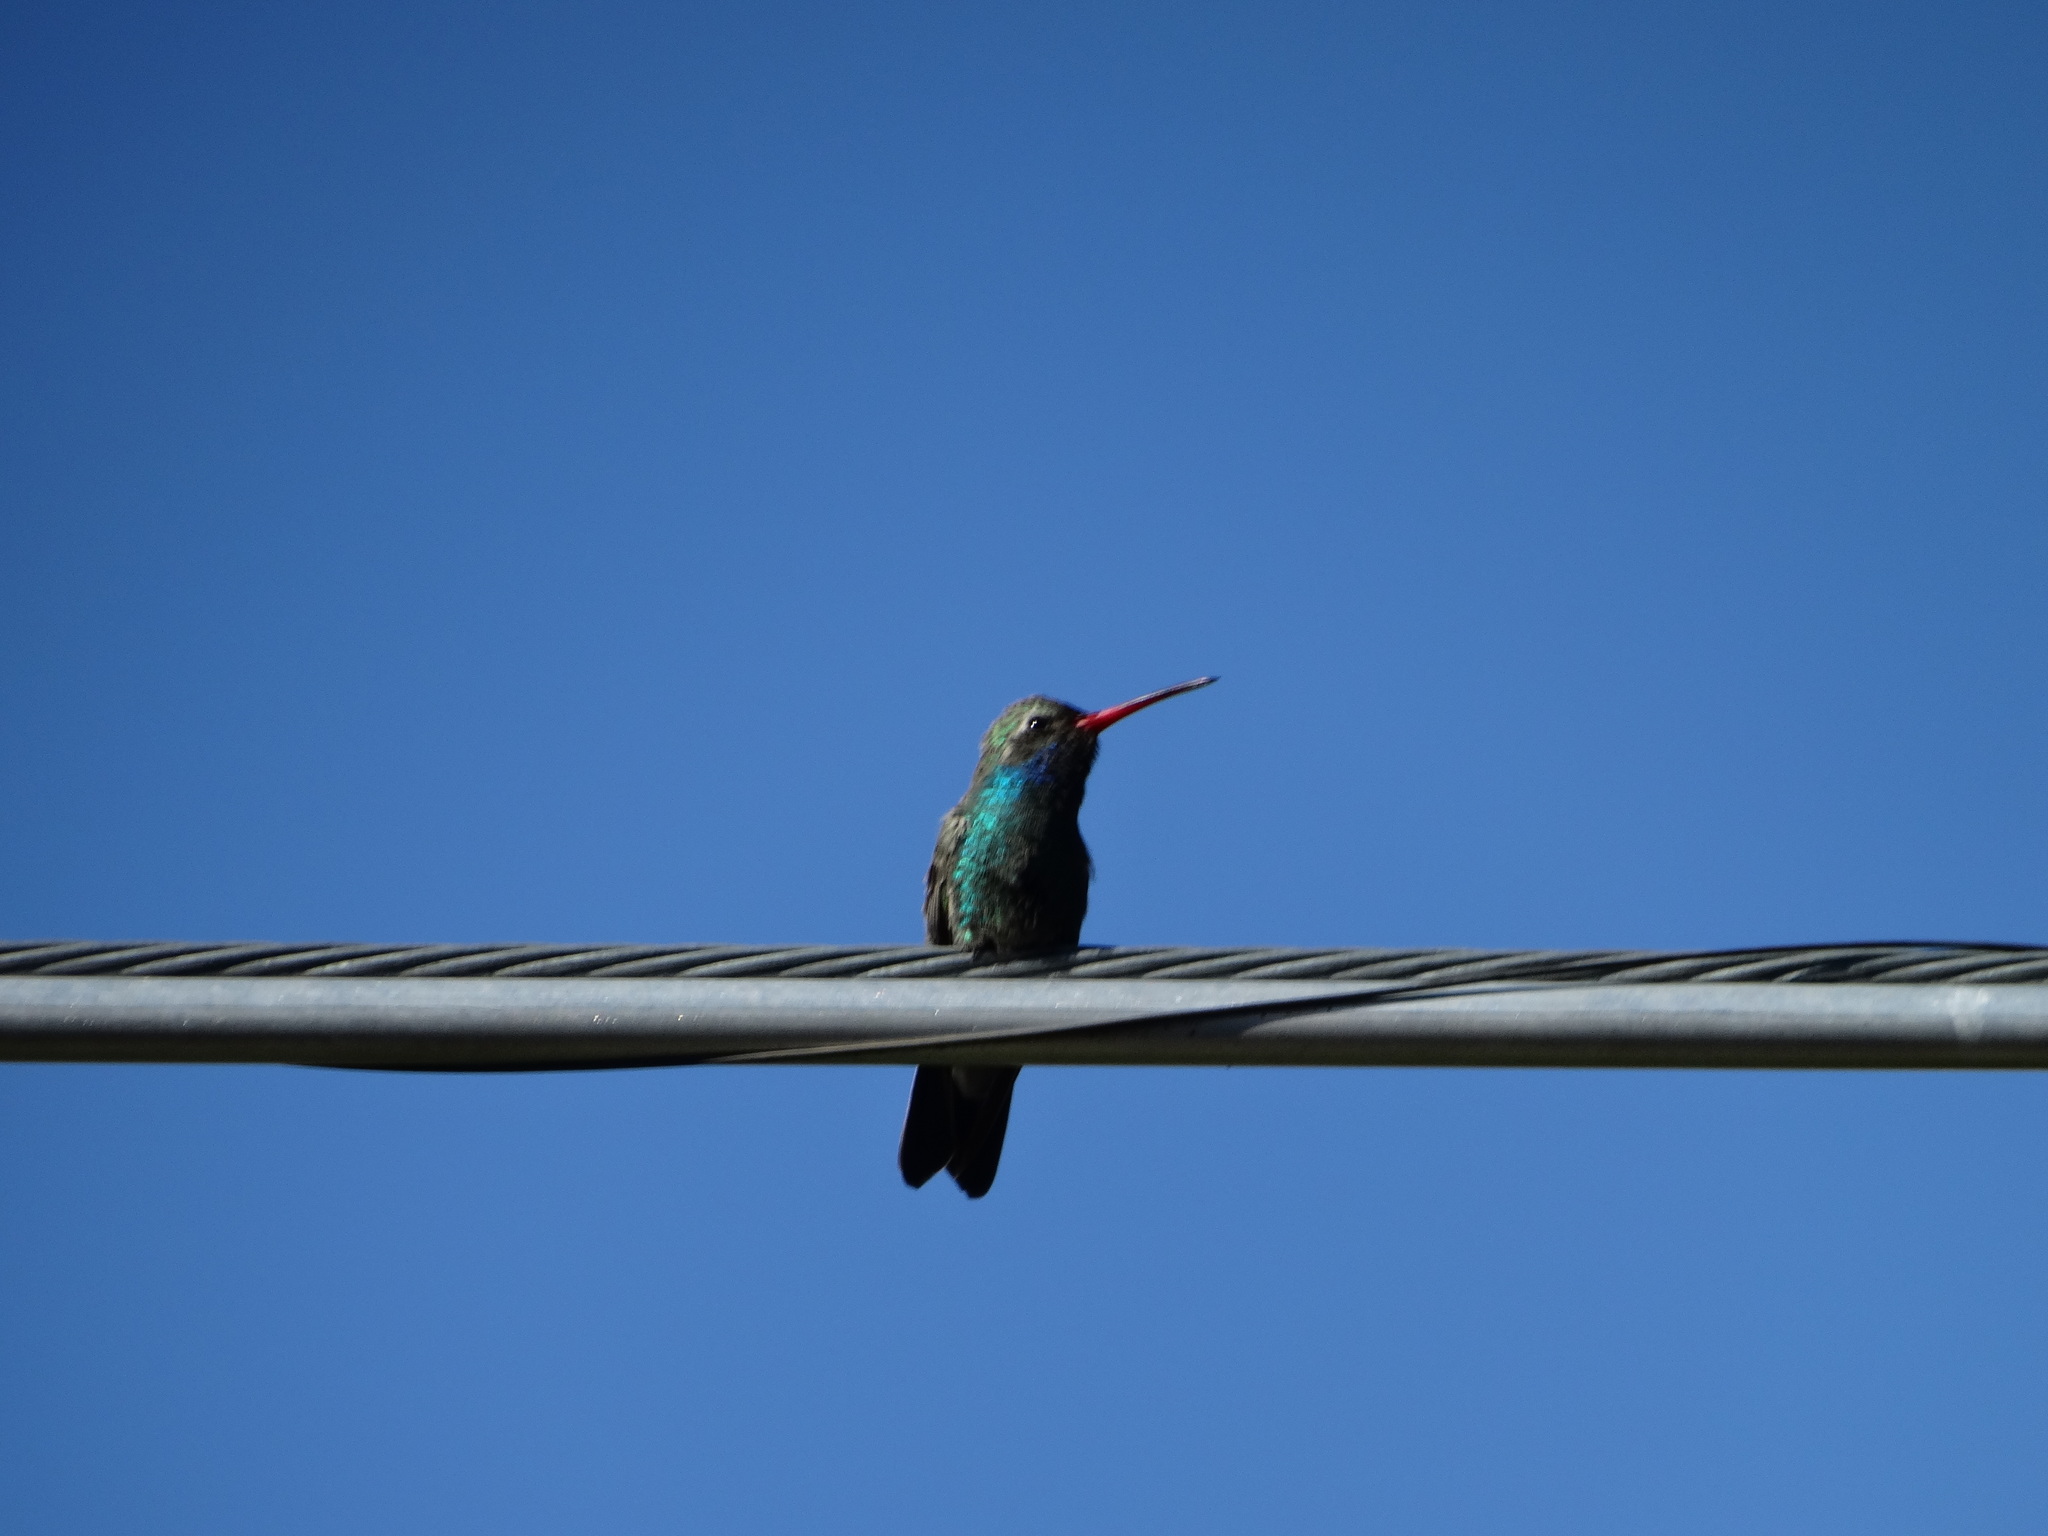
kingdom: Animalia
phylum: Chordata
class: Aves
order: Apodiformes
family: Trochilidae
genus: Cynanthus
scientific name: Cynanthus latirostris
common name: Broad-billed hummingbird
